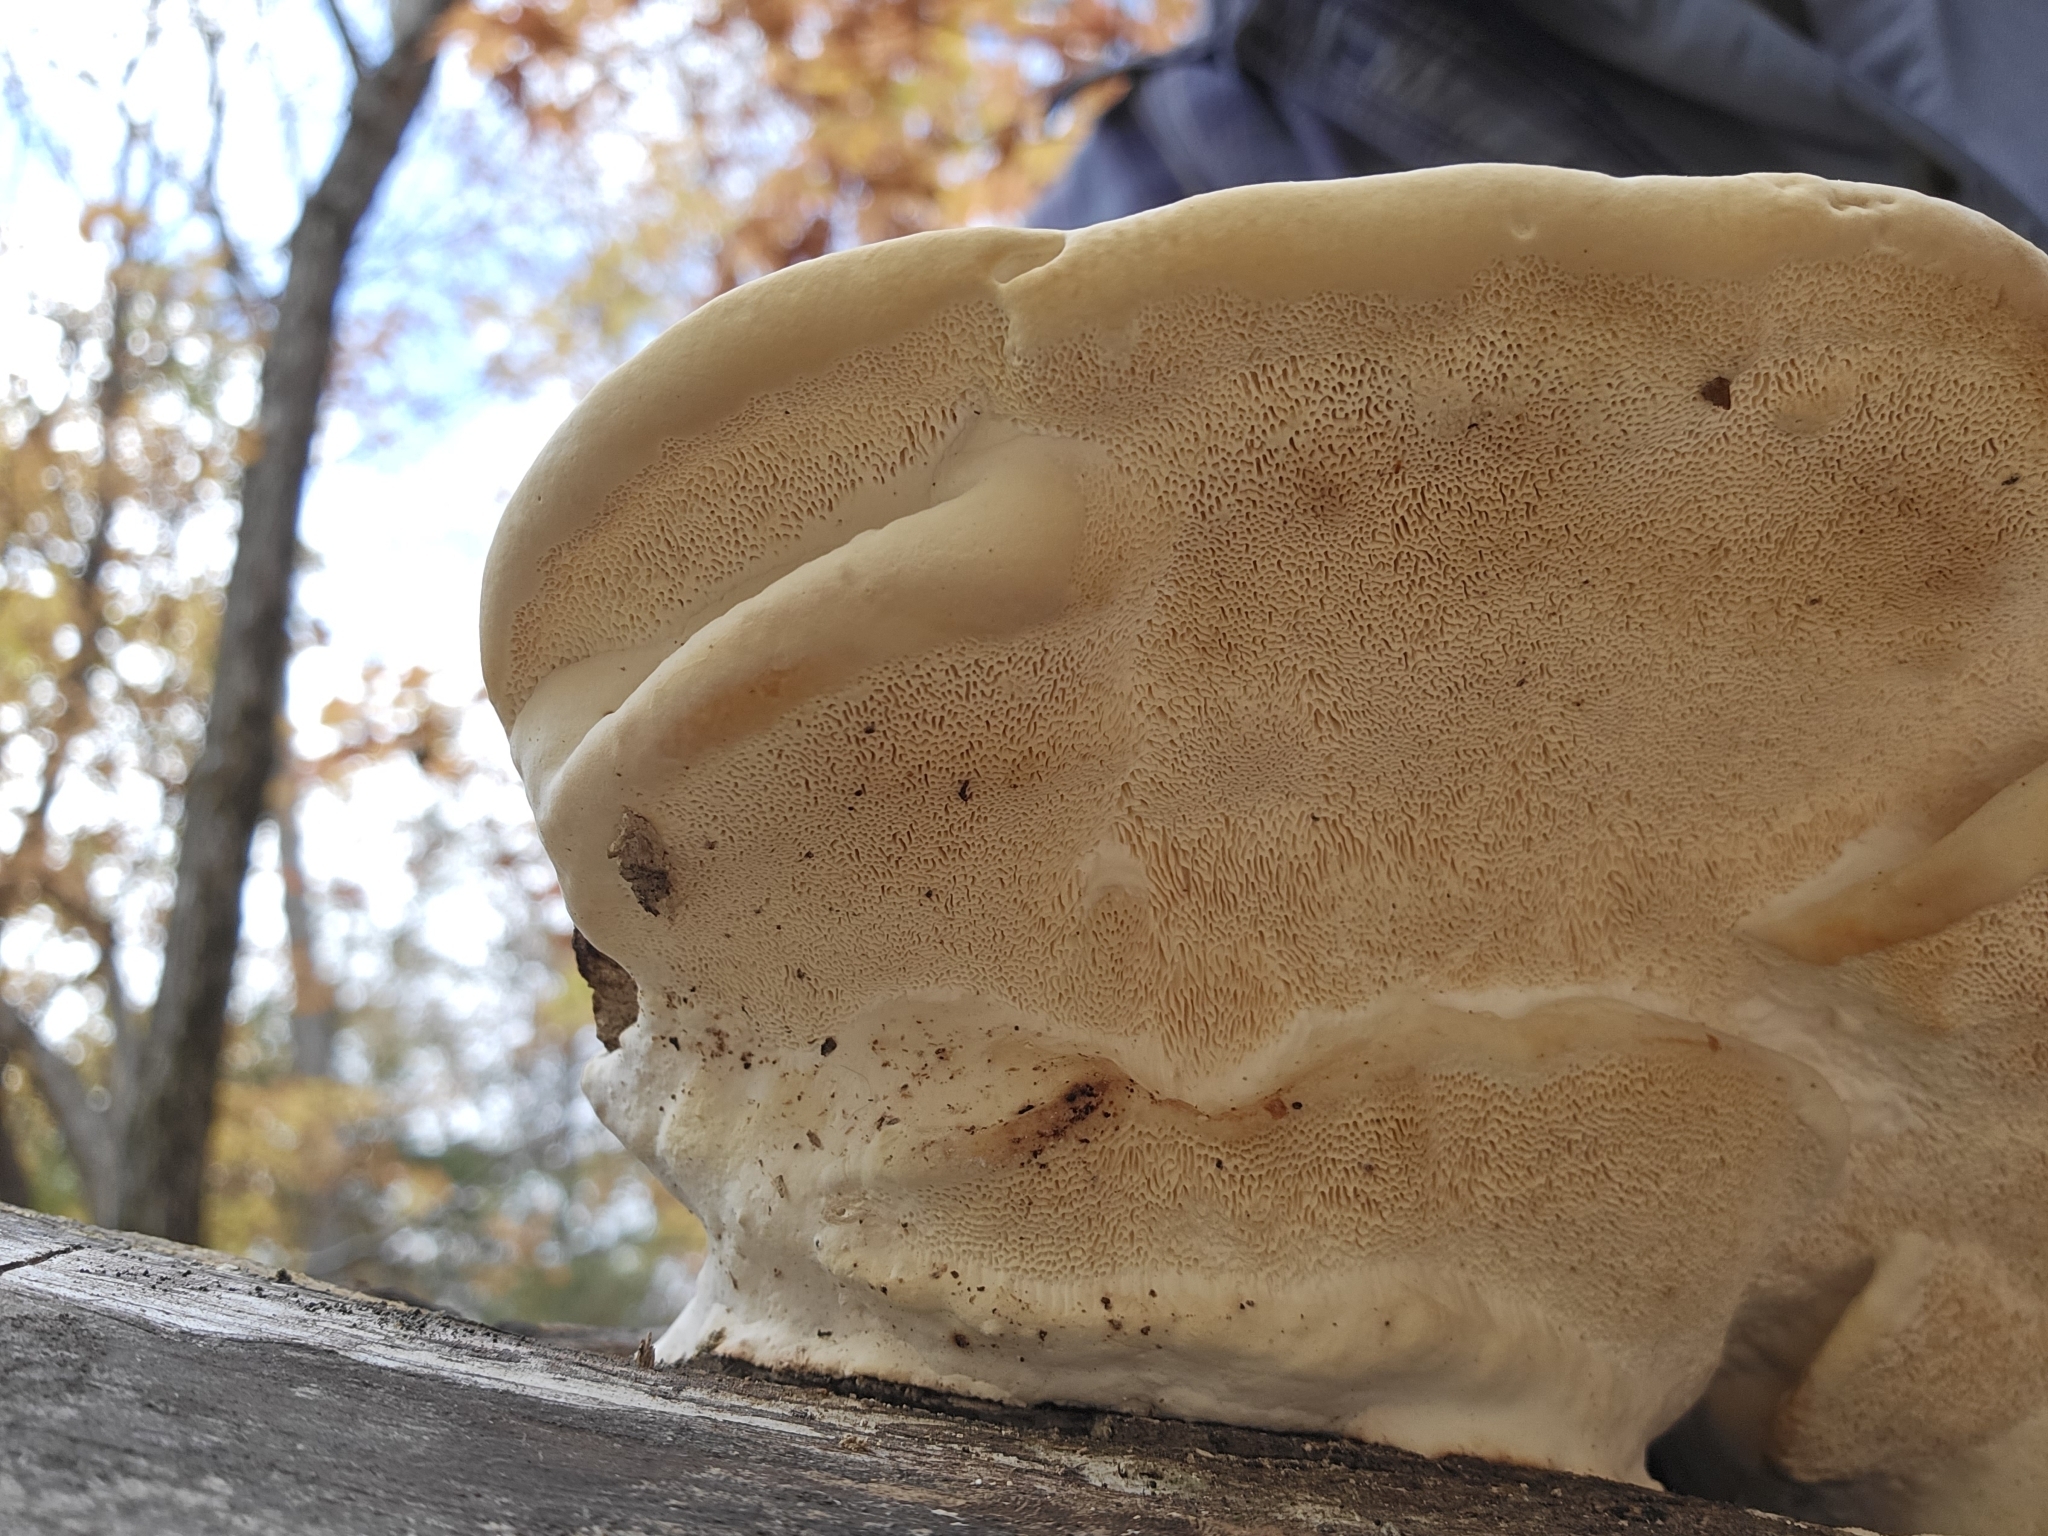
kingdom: Fungi
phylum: Basidiomycota
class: Agaricomycetes
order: Polyporales
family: Polyporaceae
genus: Trametes
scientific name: Trametes
